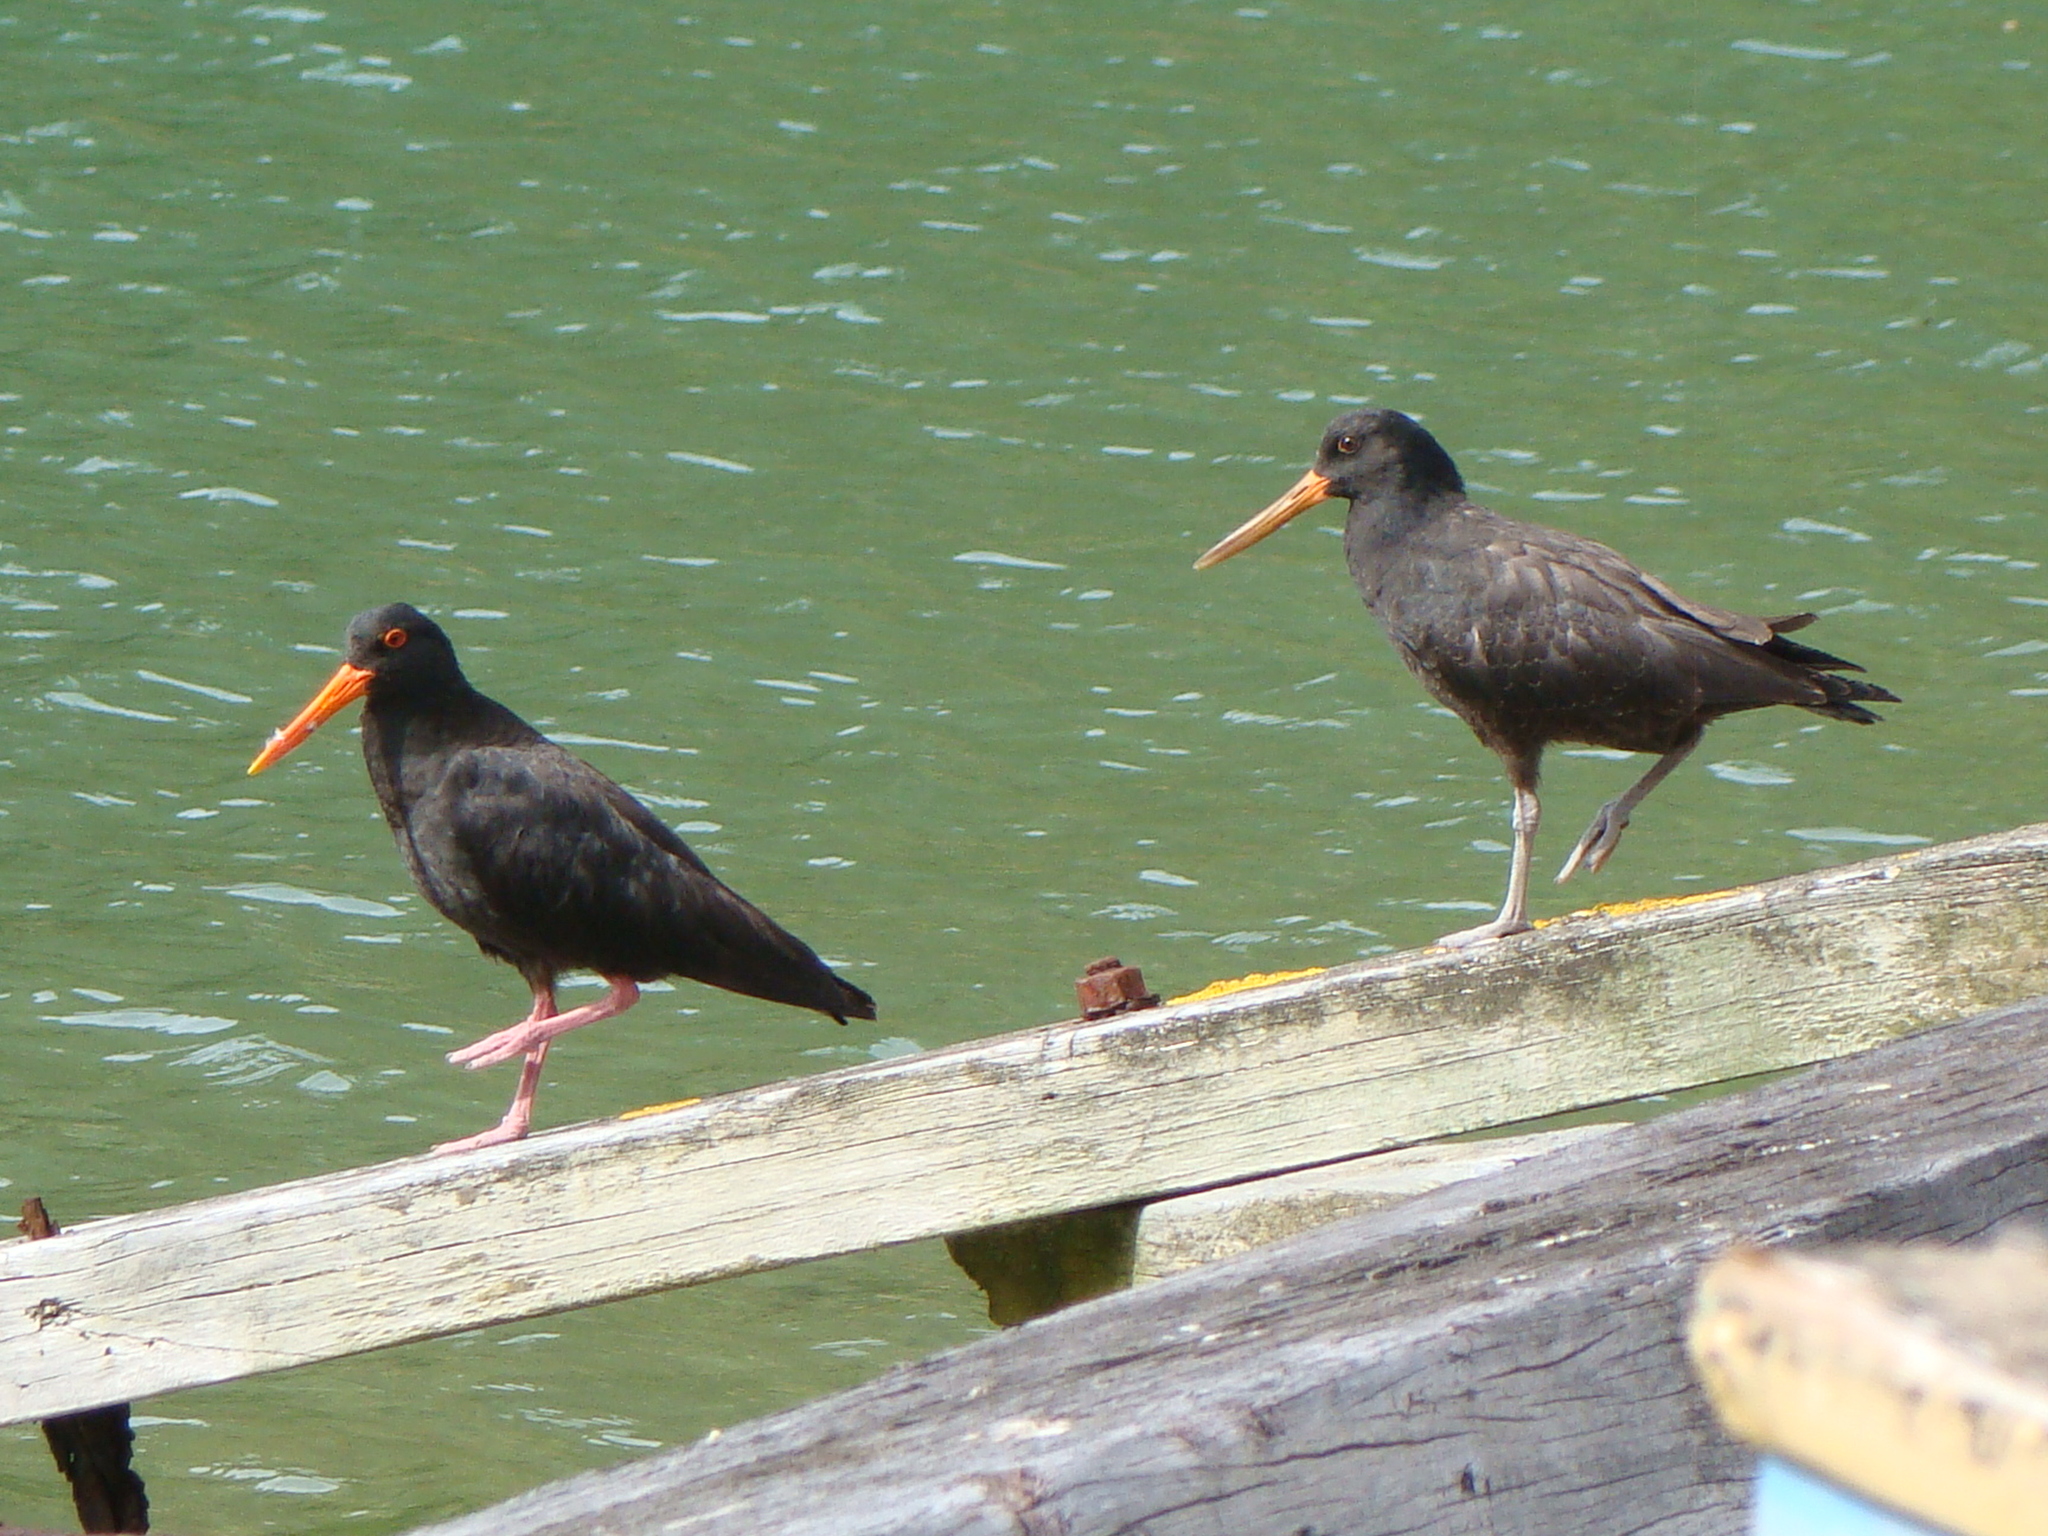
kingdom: Animalia
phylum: Chordata
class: Aves
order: Charadriiformes
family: Haematopodidae
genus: Haematopus
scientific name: Haematopus unicolor
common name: Variable oystercatcher
